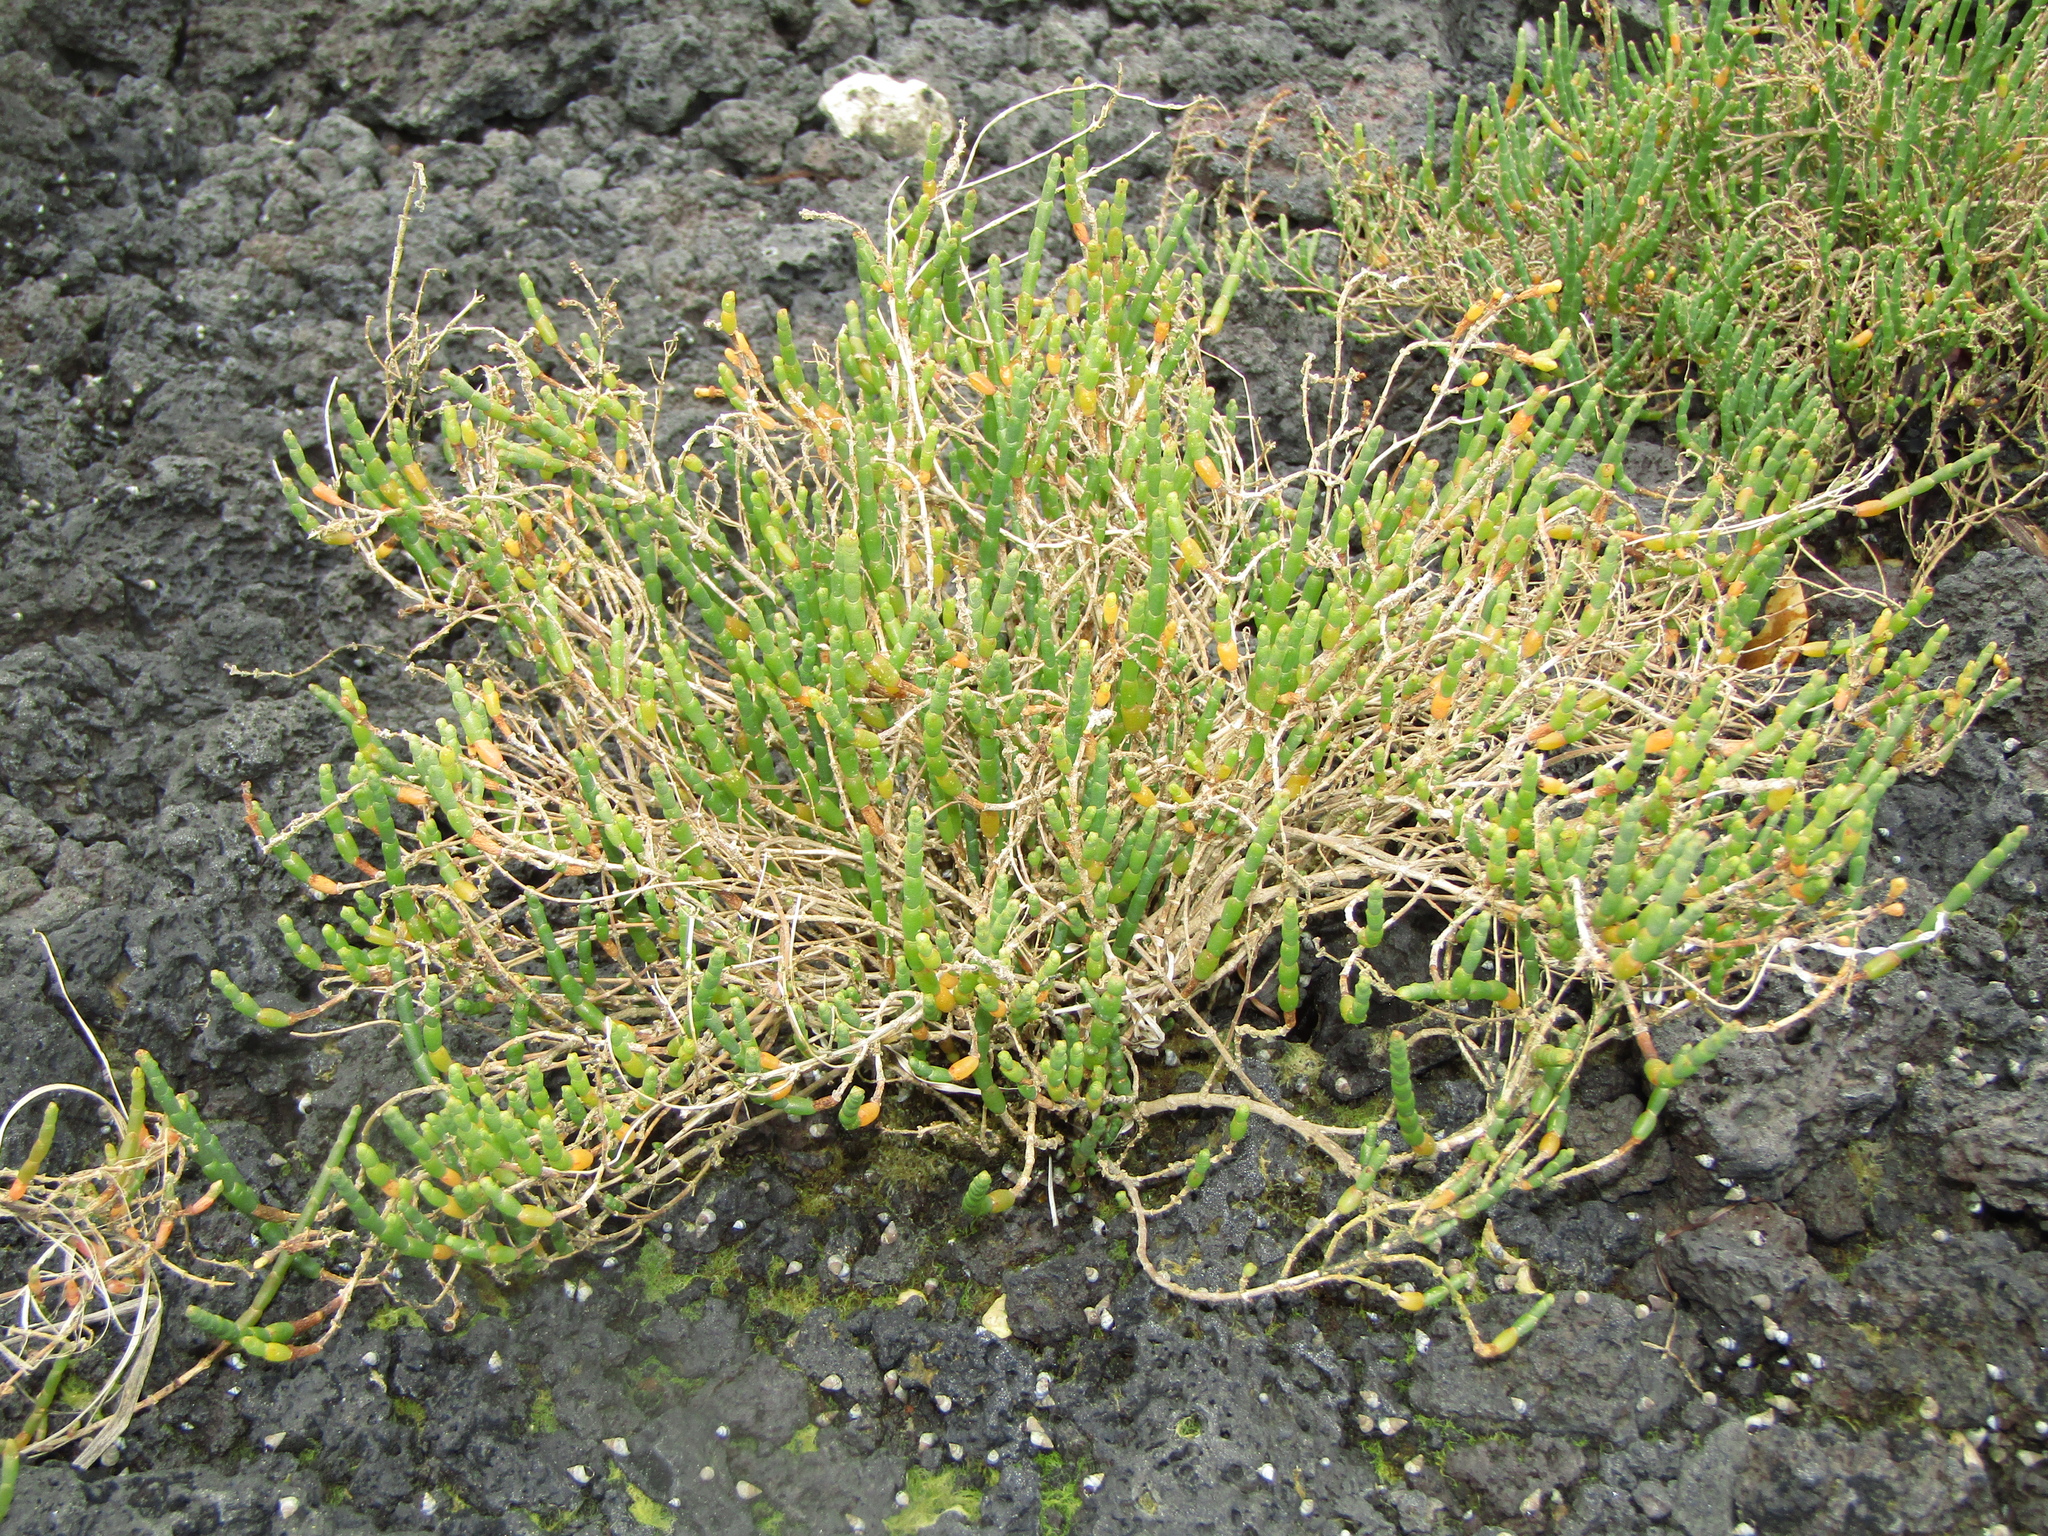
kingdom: Plantae
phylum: Tracheophyta
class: Magnoliopsida
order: Caryophyllales
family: Amaranthaceae
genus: Salicornia
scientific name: Salicornia quinqueflora
